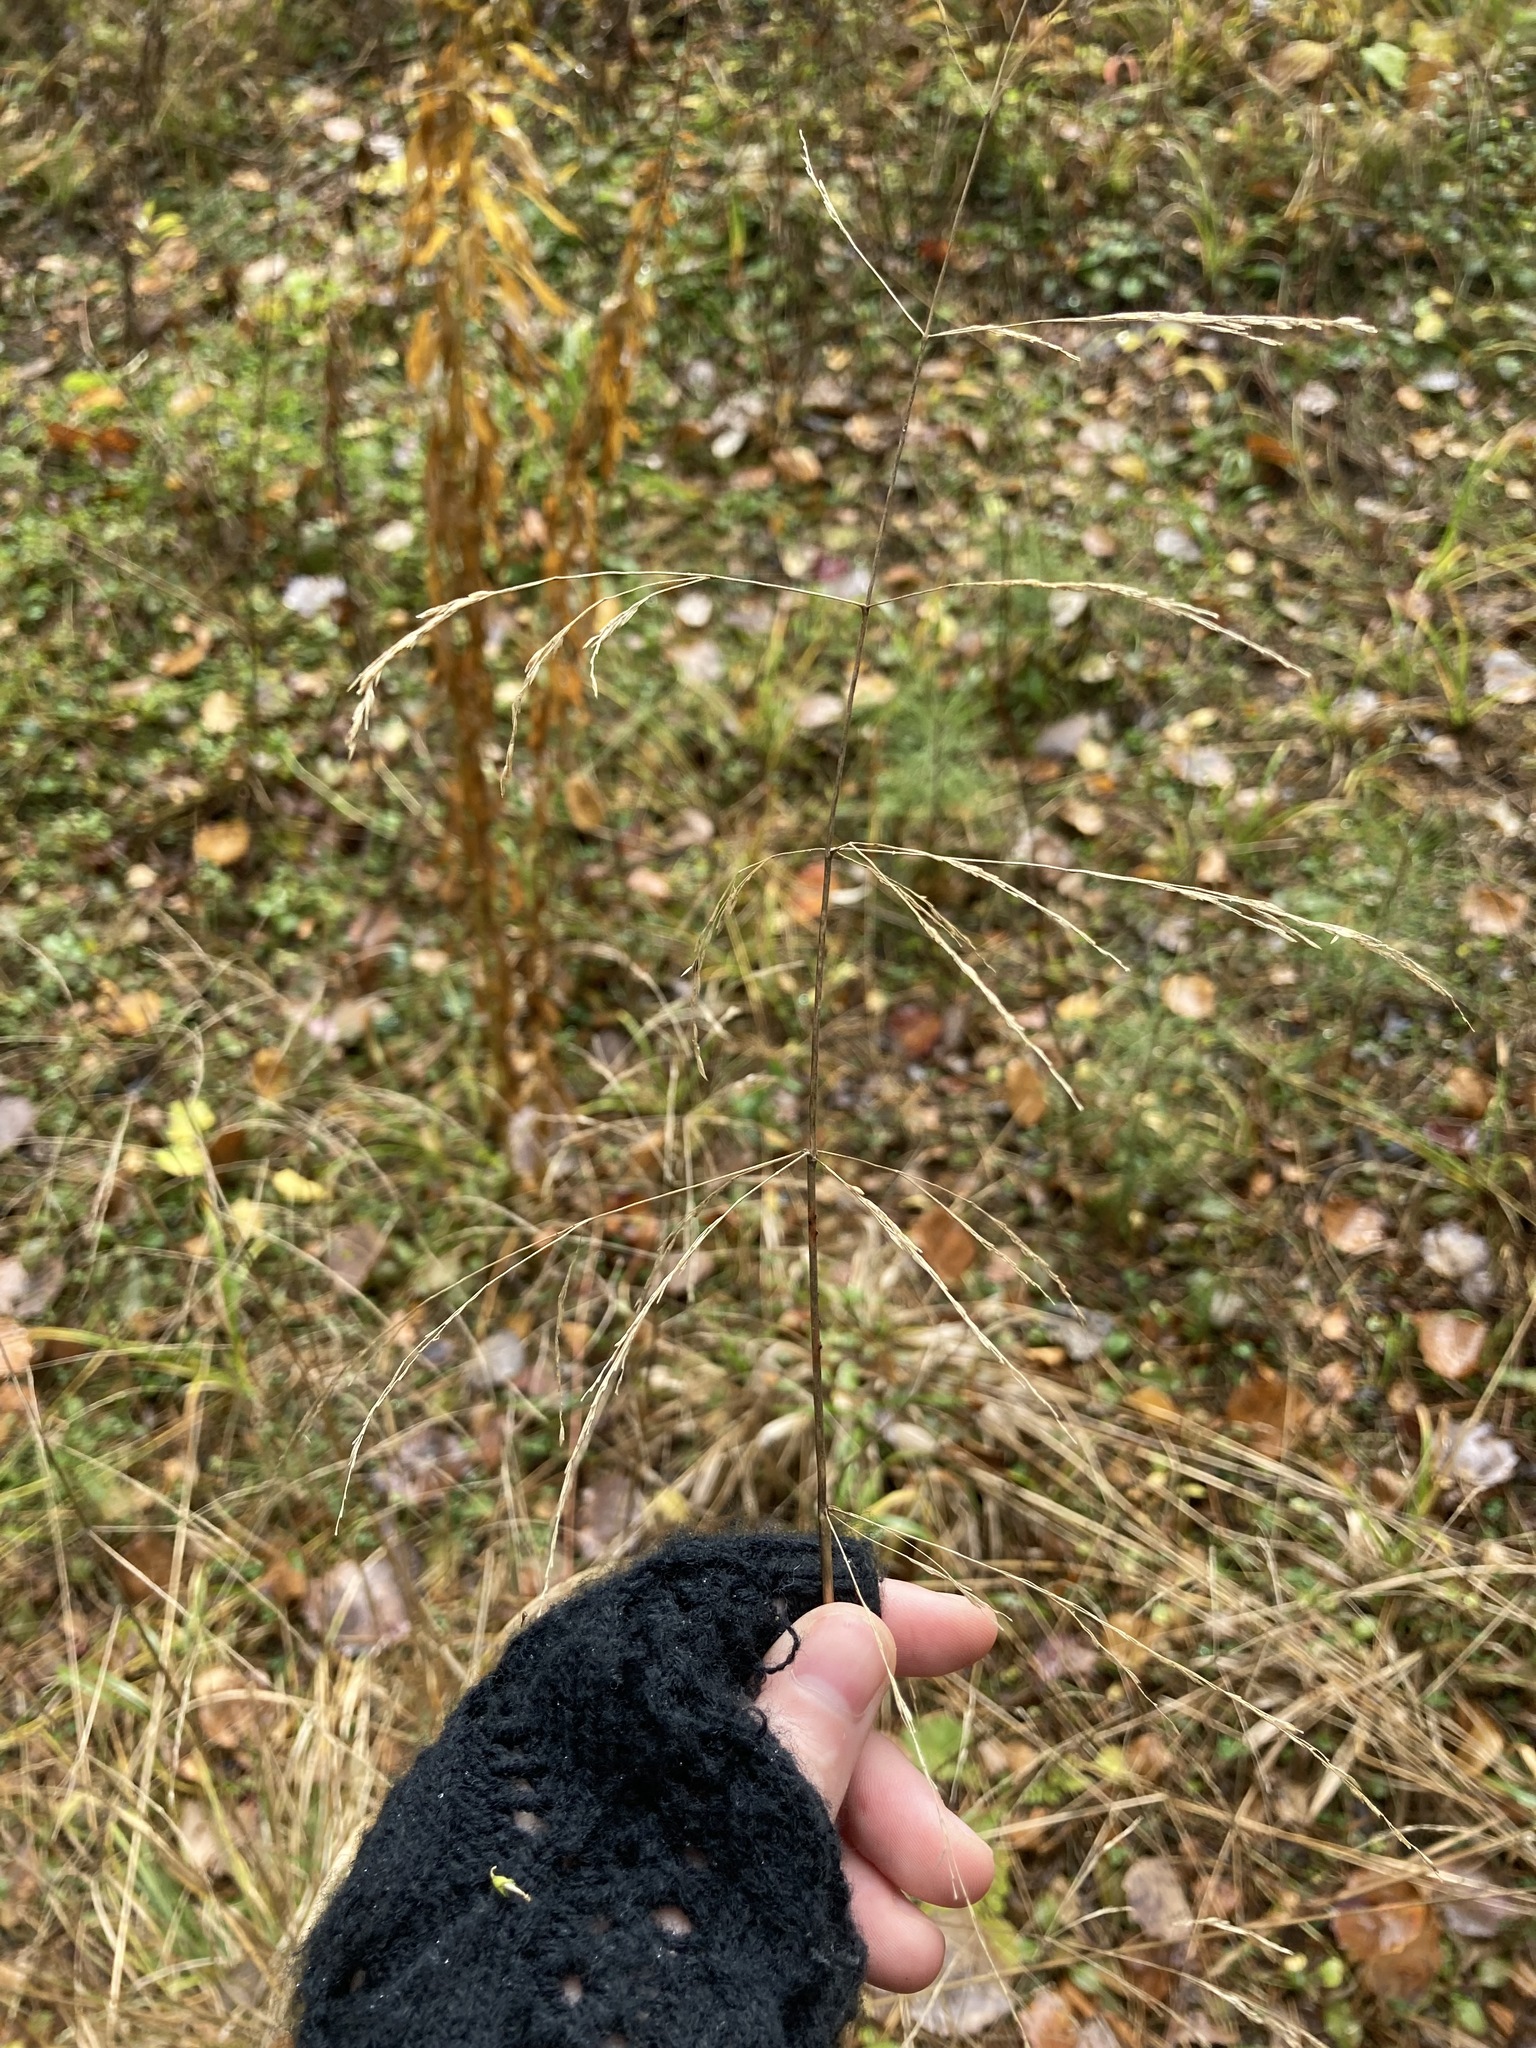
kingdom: Plantae
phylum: Tracheophyta
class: Liliopsida
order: Poales
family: Poaceae
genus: Deschampsia
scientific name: Deschampsia cespitosa
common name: Tufted hair-grass
